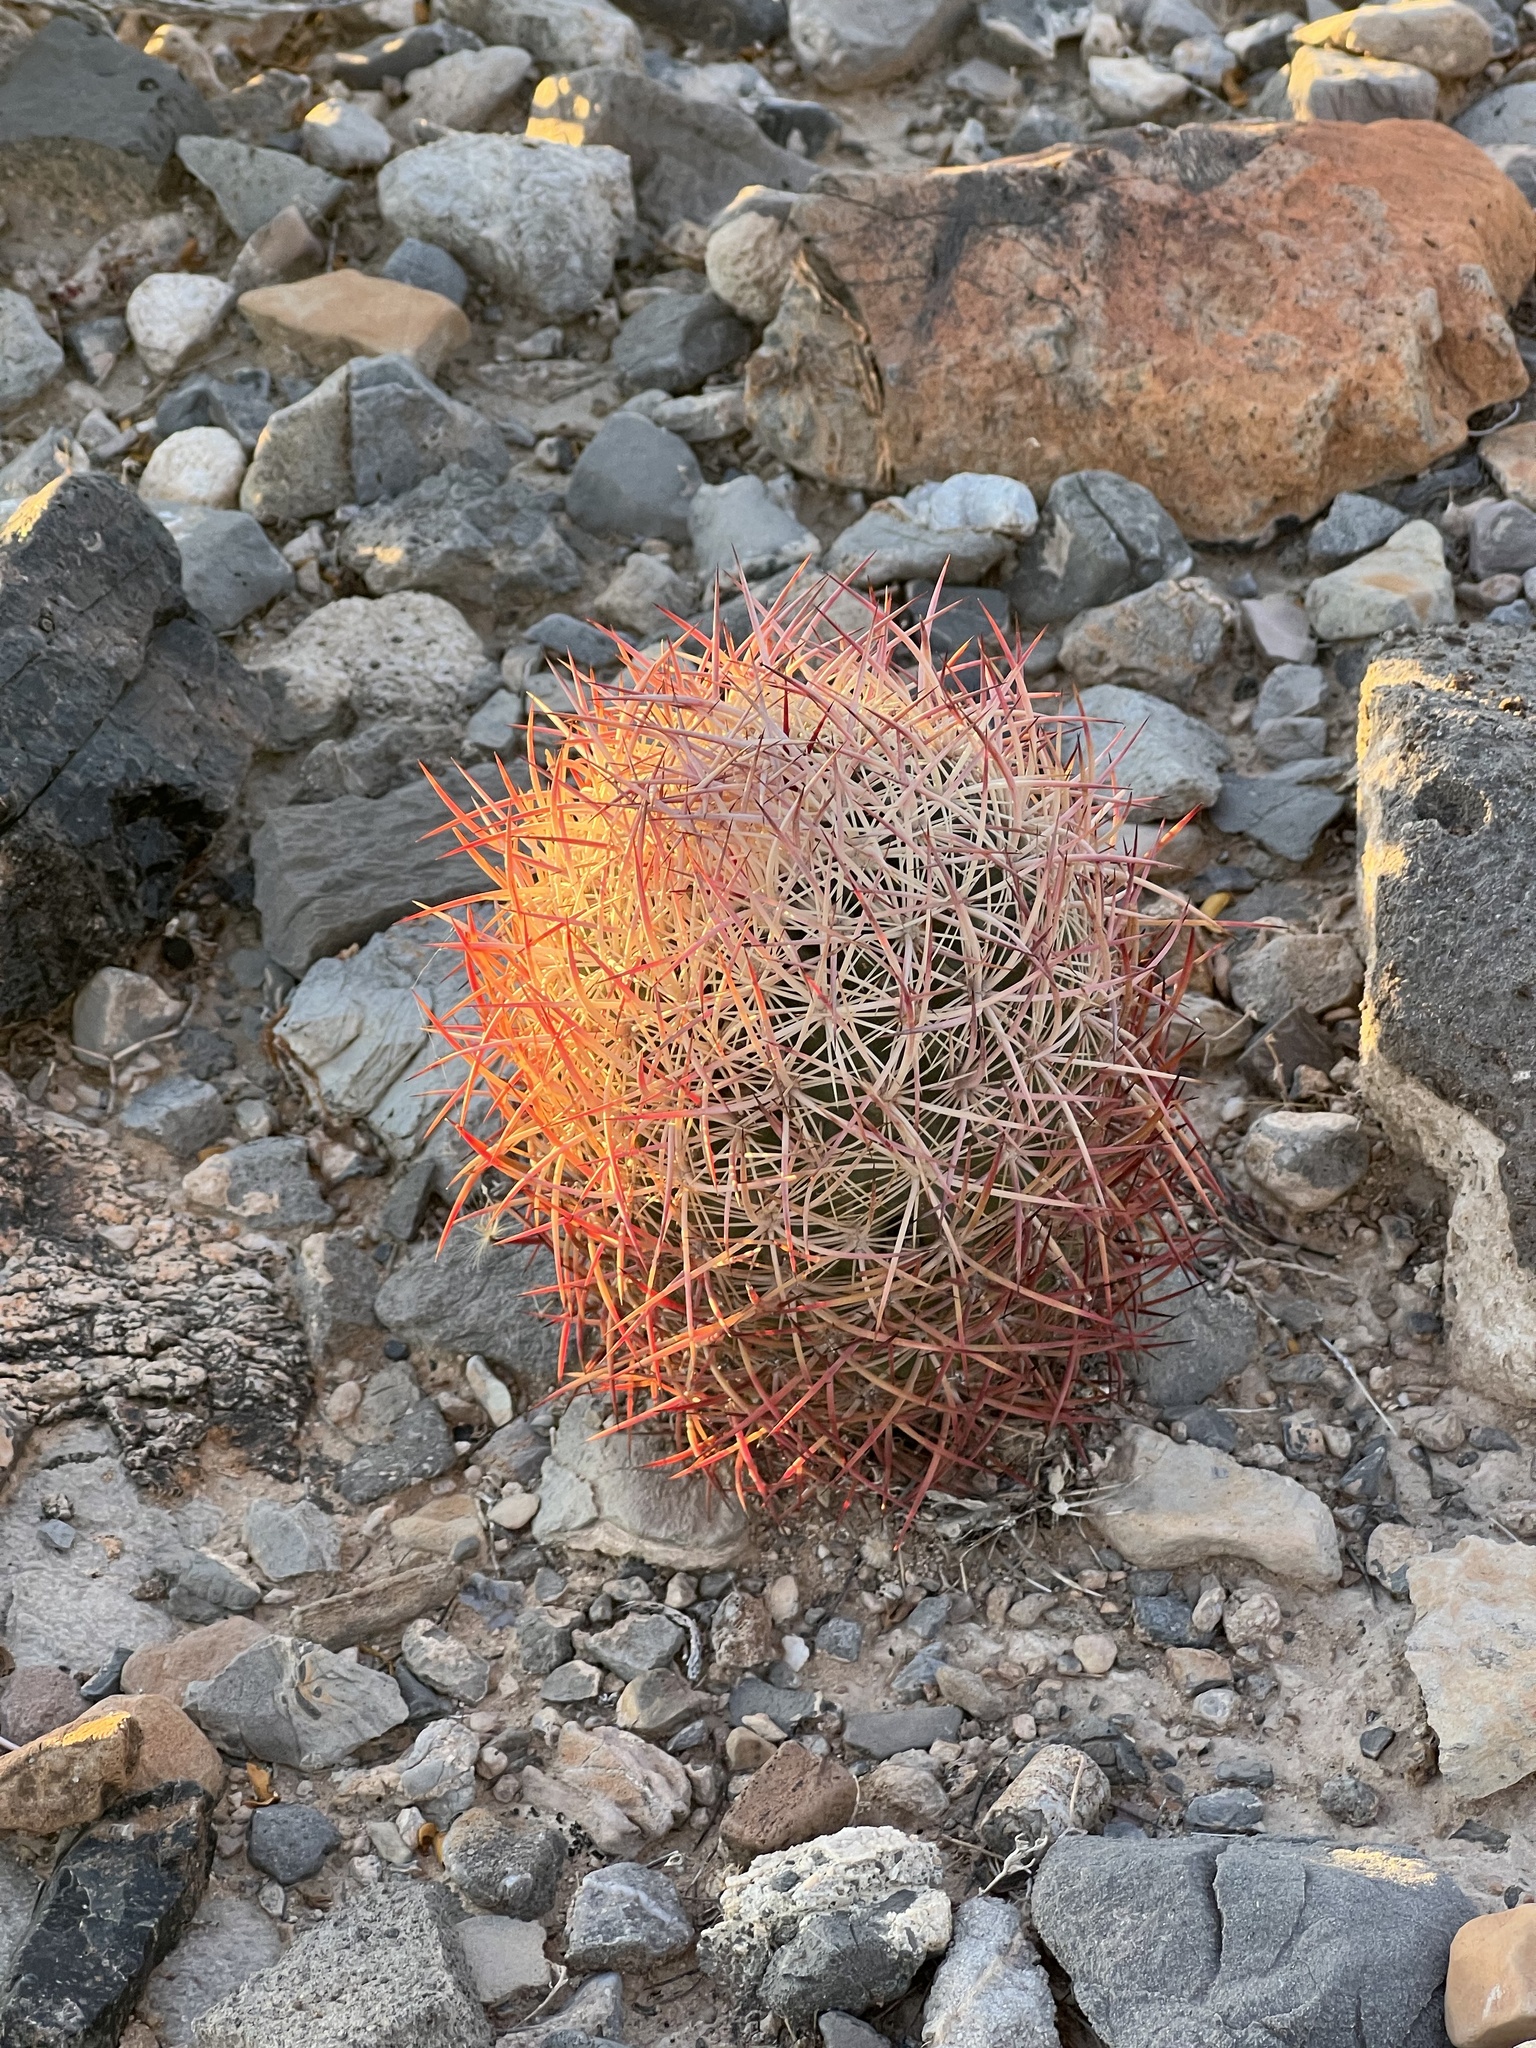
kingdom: Plantae
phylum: Tracheophyta
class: Magnoliopsida
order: Caryophyllales
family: Cactaceae
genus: Sclerocactus
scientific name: Sclerocactus johnsonii
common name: Eight-spine fishhook cactus
